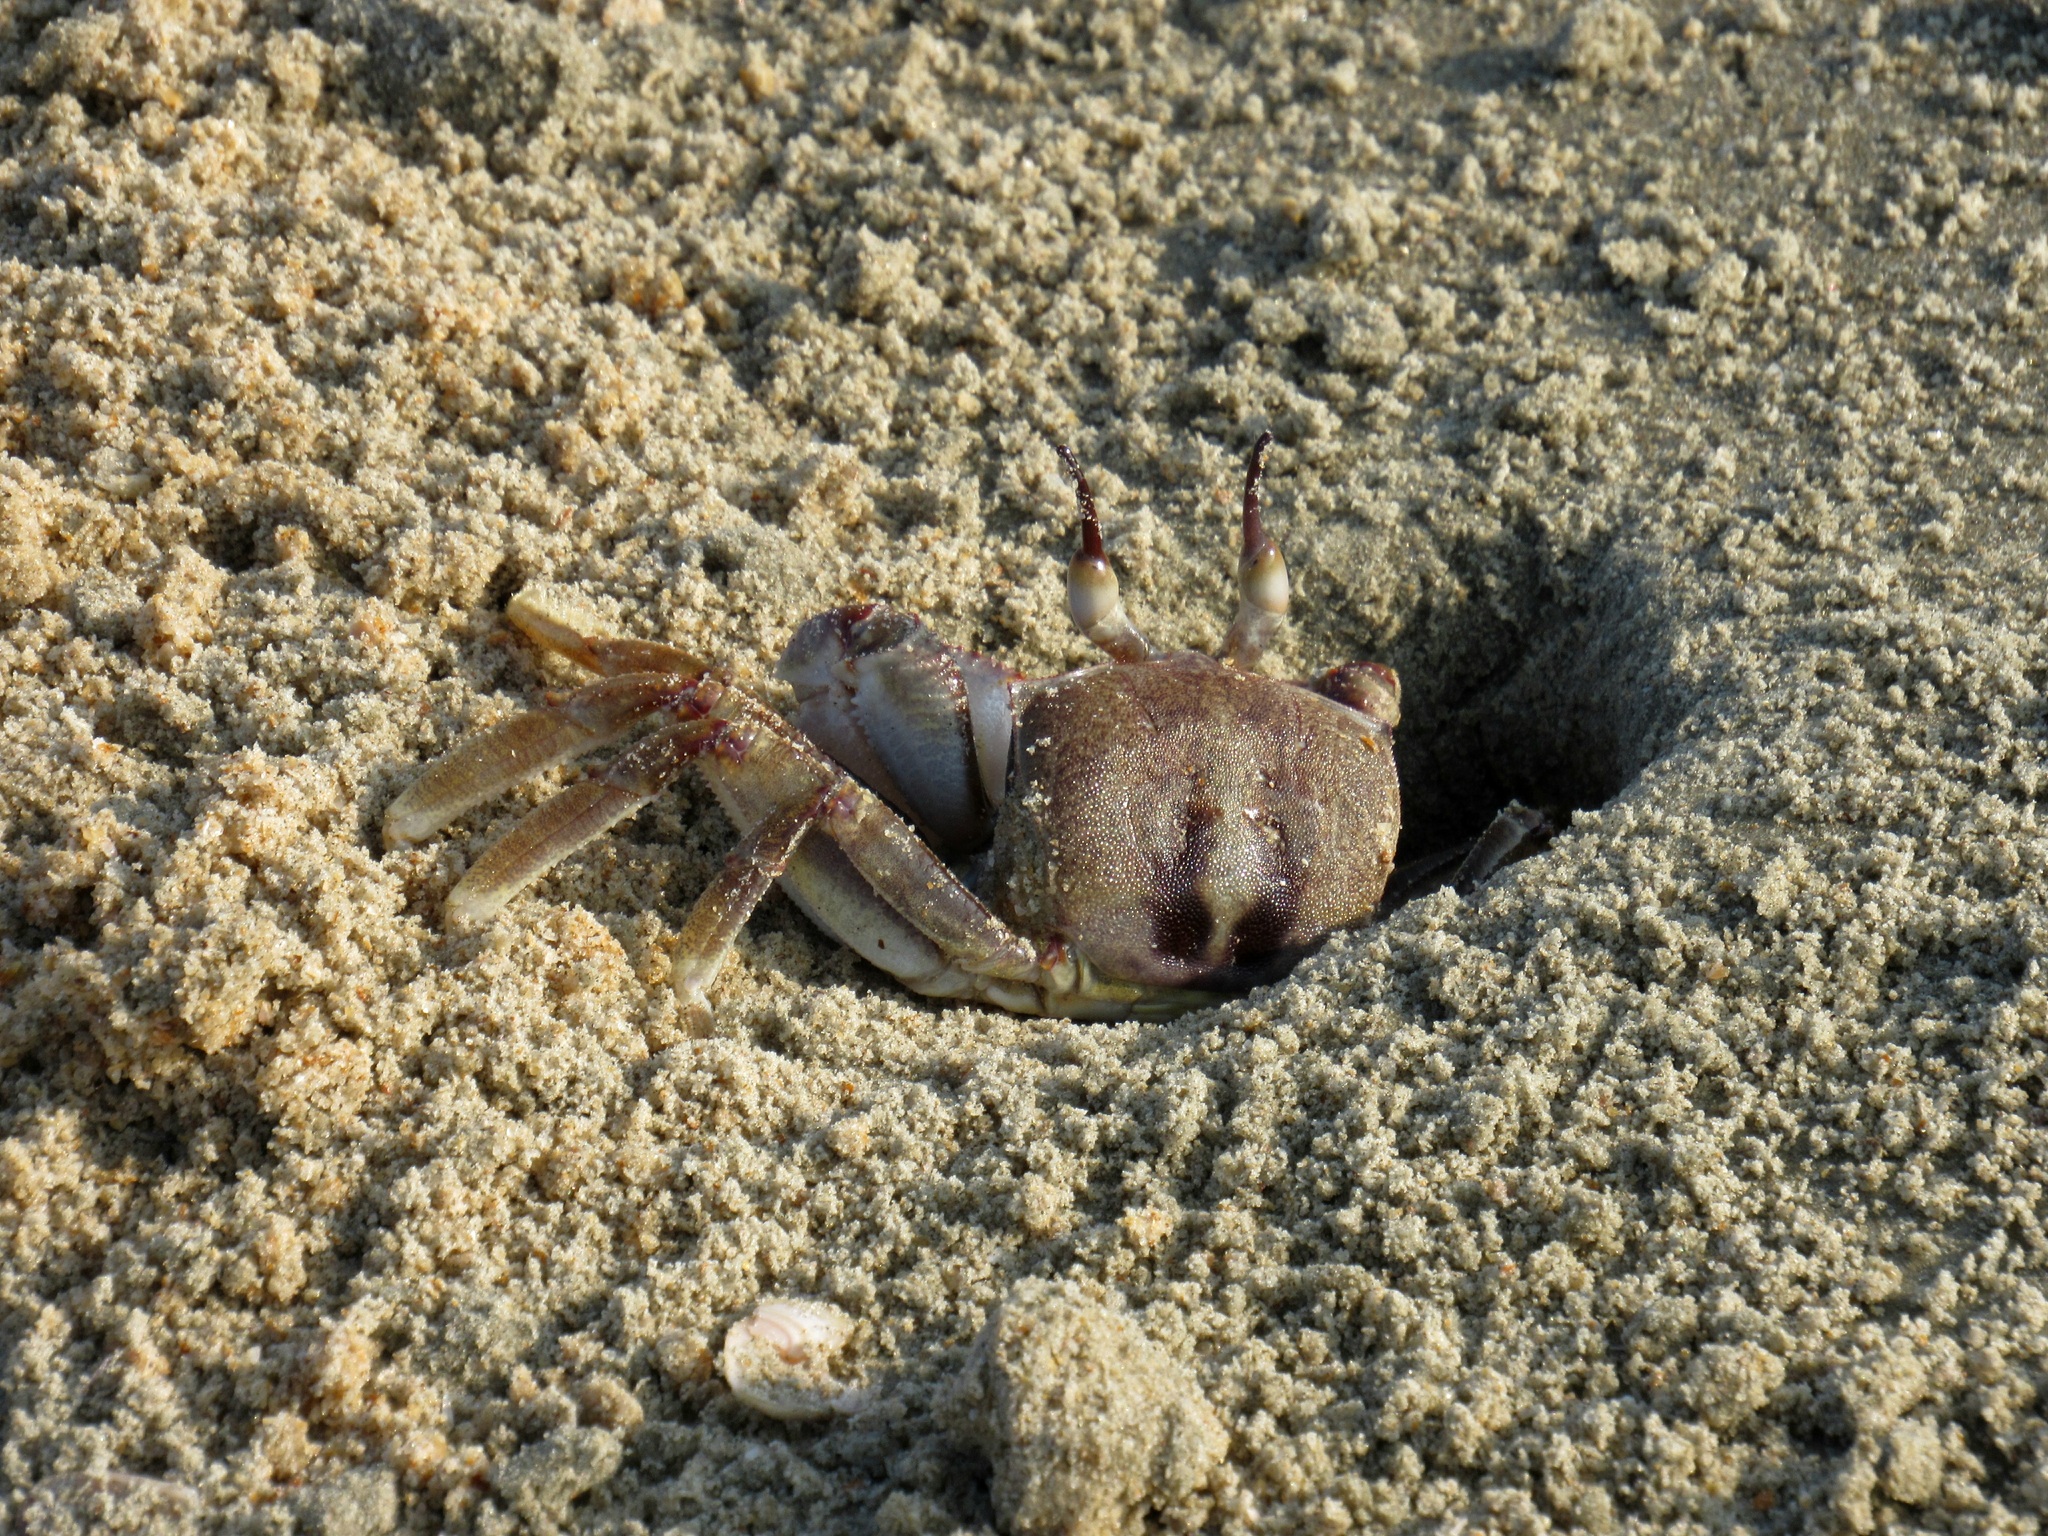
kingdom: Animalia
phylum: Arthropoda
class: Malacostraca
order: Decapoda
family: Ocypodidae
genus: Ocypode
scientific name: Ocypode ceratophthalmus
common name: Indo-pacific ghost crab
